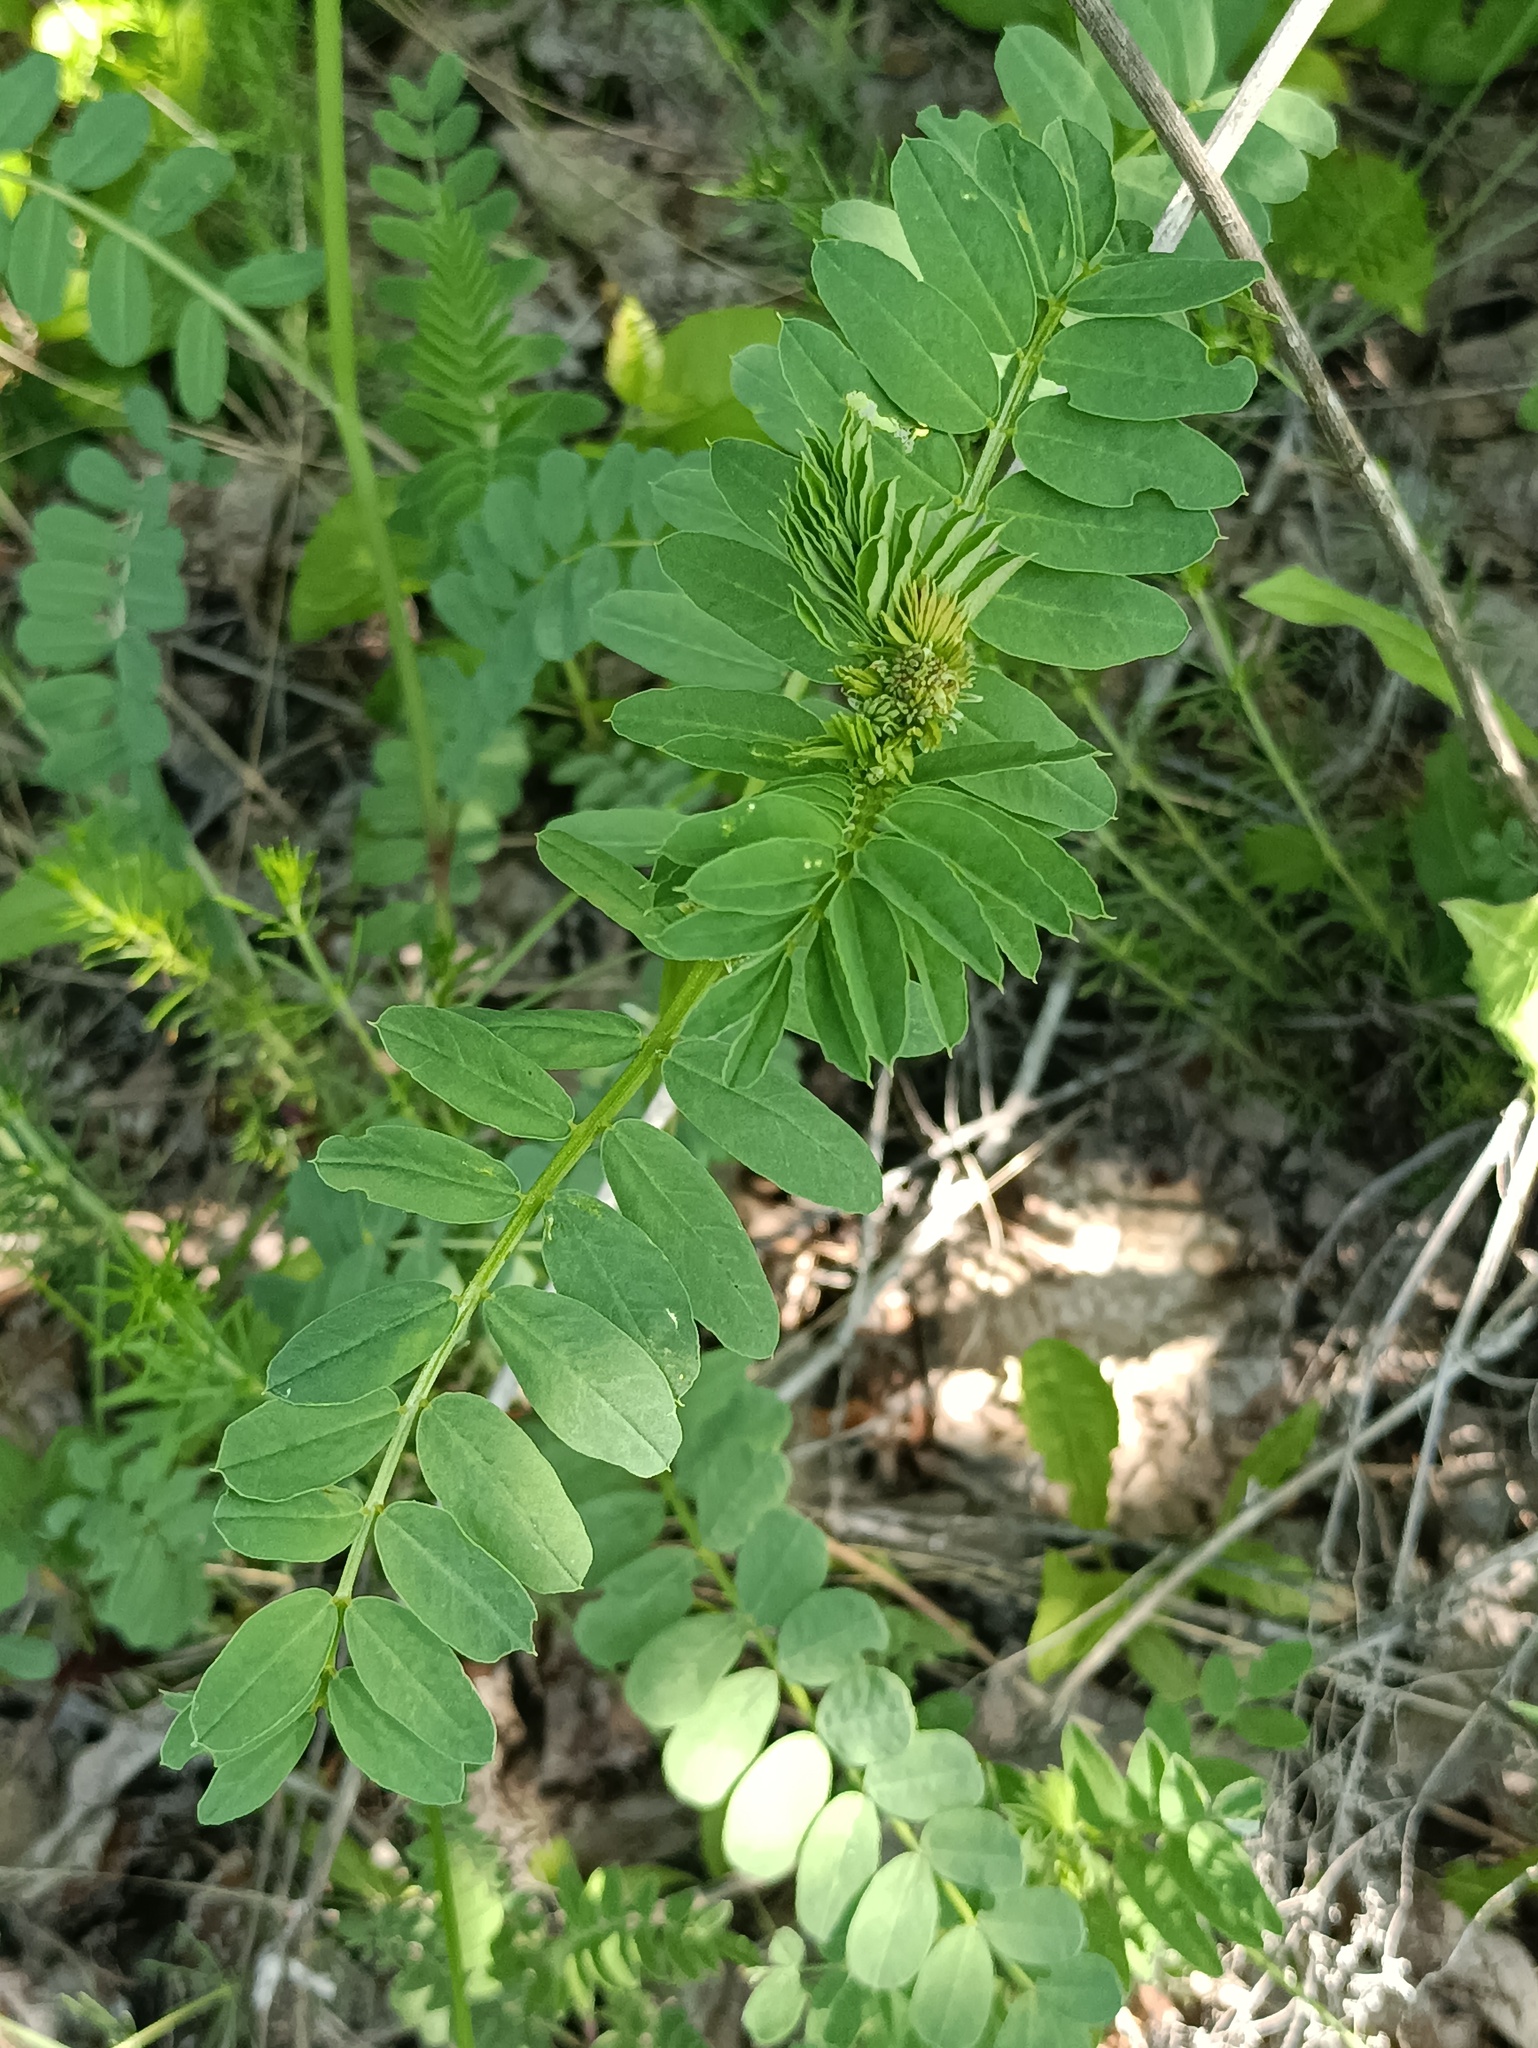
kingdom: Plantae
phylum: Tracheophyta
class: Magnoliopsida
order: Fabales
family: Fabaceae
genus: Coronilla
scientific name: Coronilla varia
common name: Crownvetch
